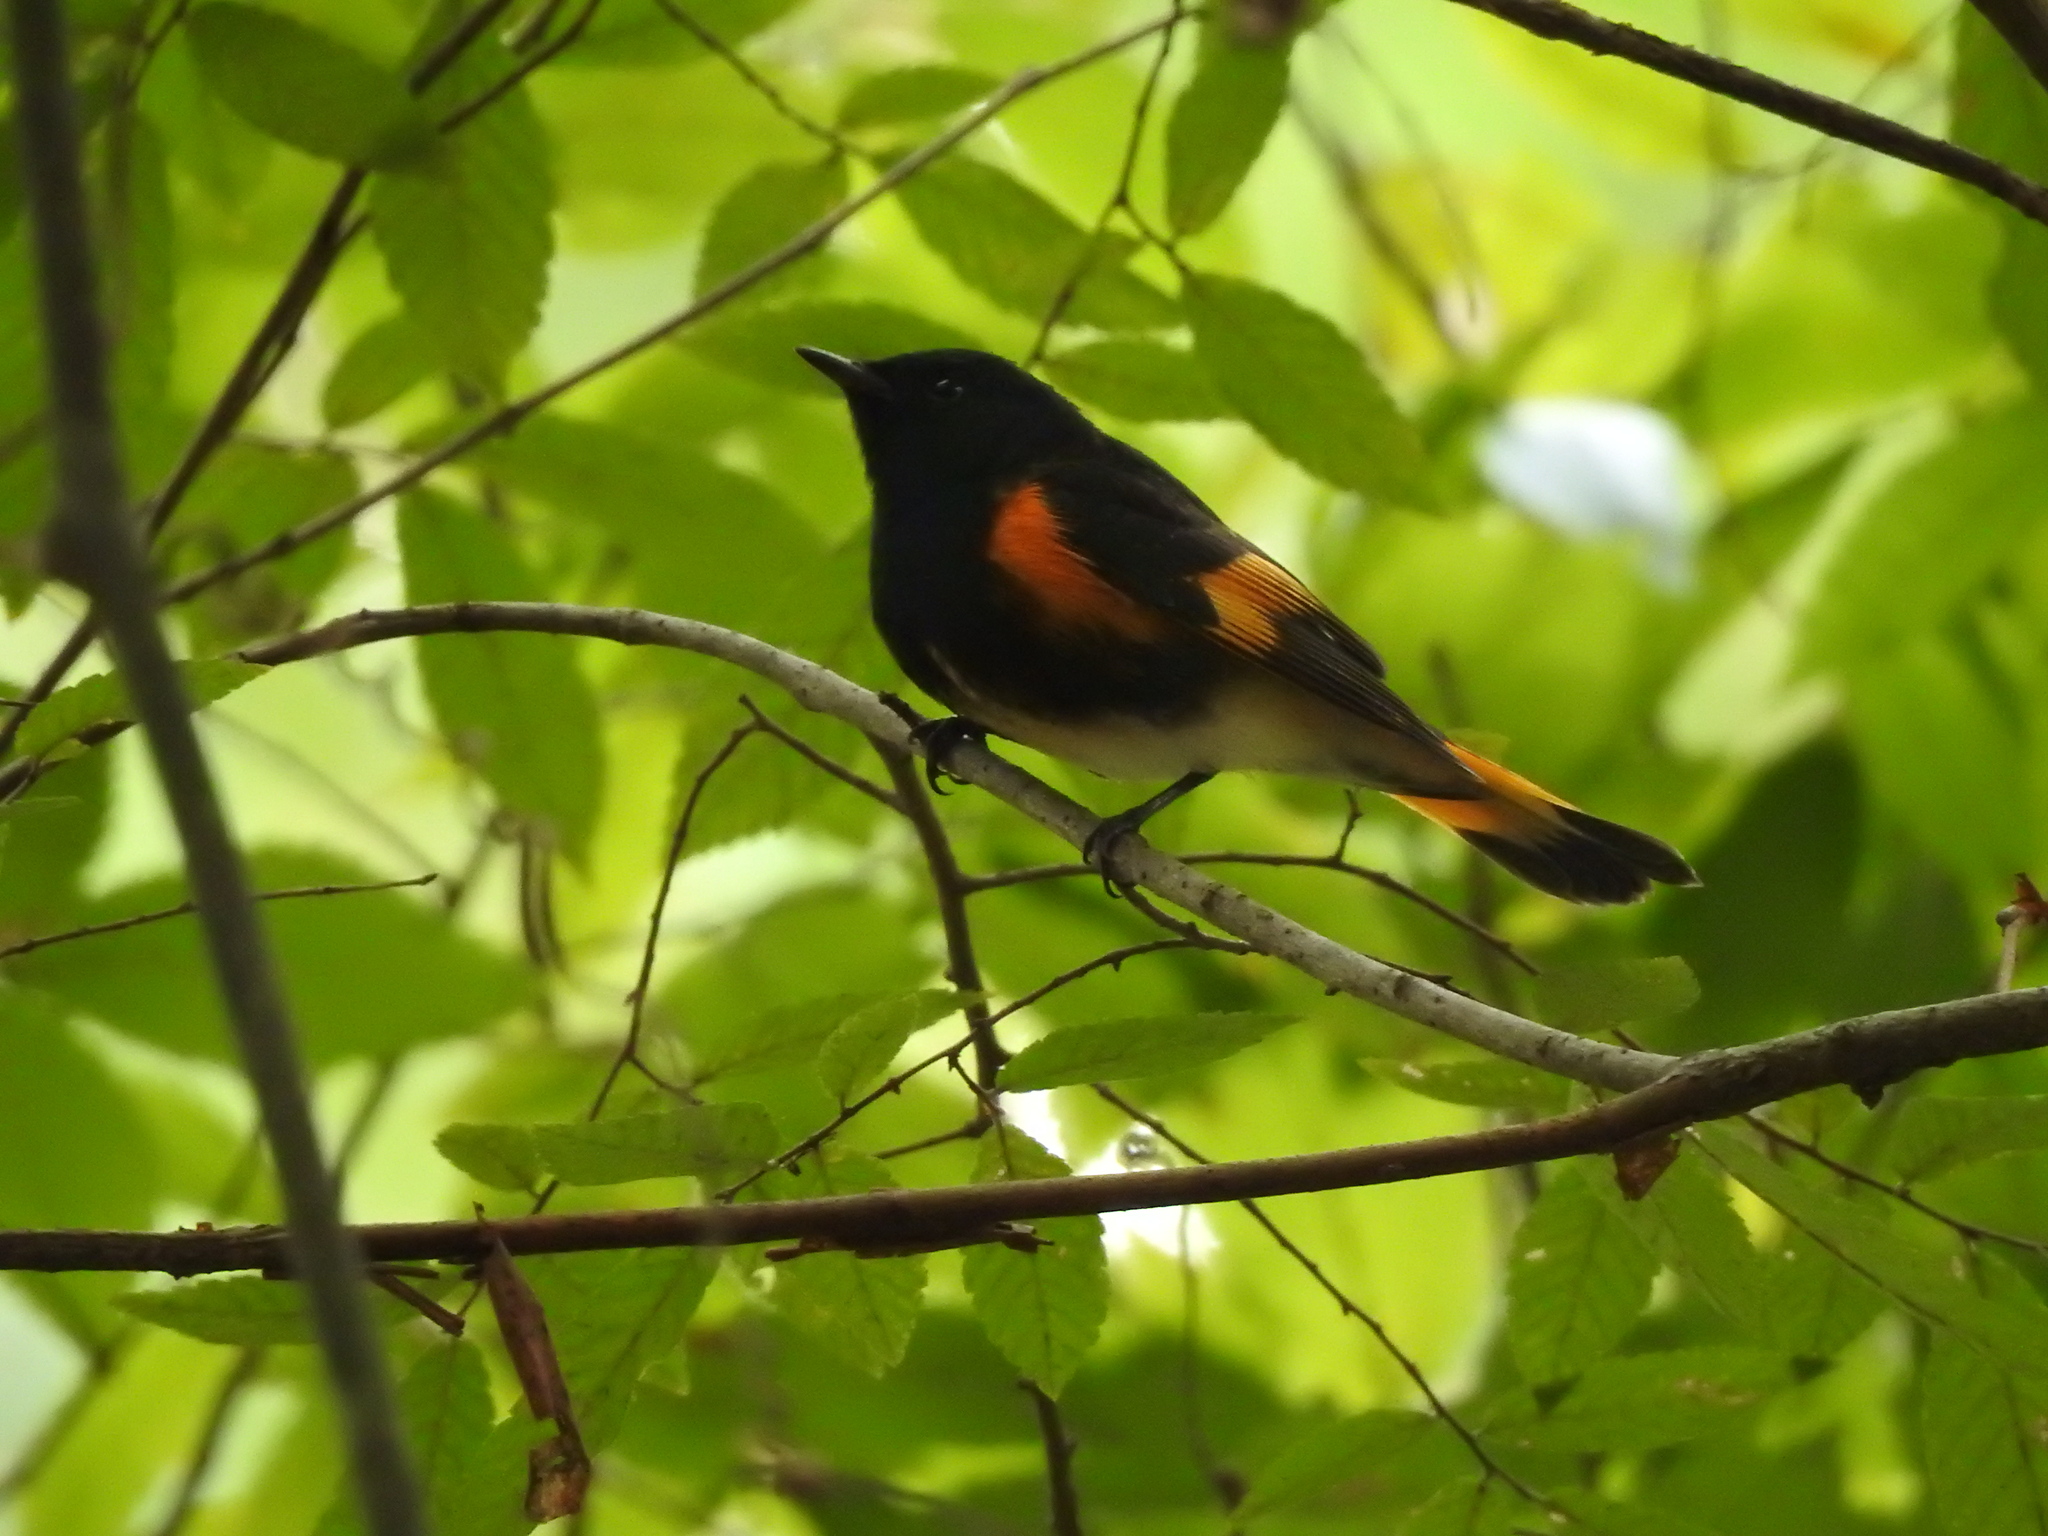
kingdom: Animalia
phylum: Chordata
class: Aves
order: Passeriformes
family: Parulidae
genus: Setophaga
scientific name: Setophaga ruticilla
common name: American redstart
